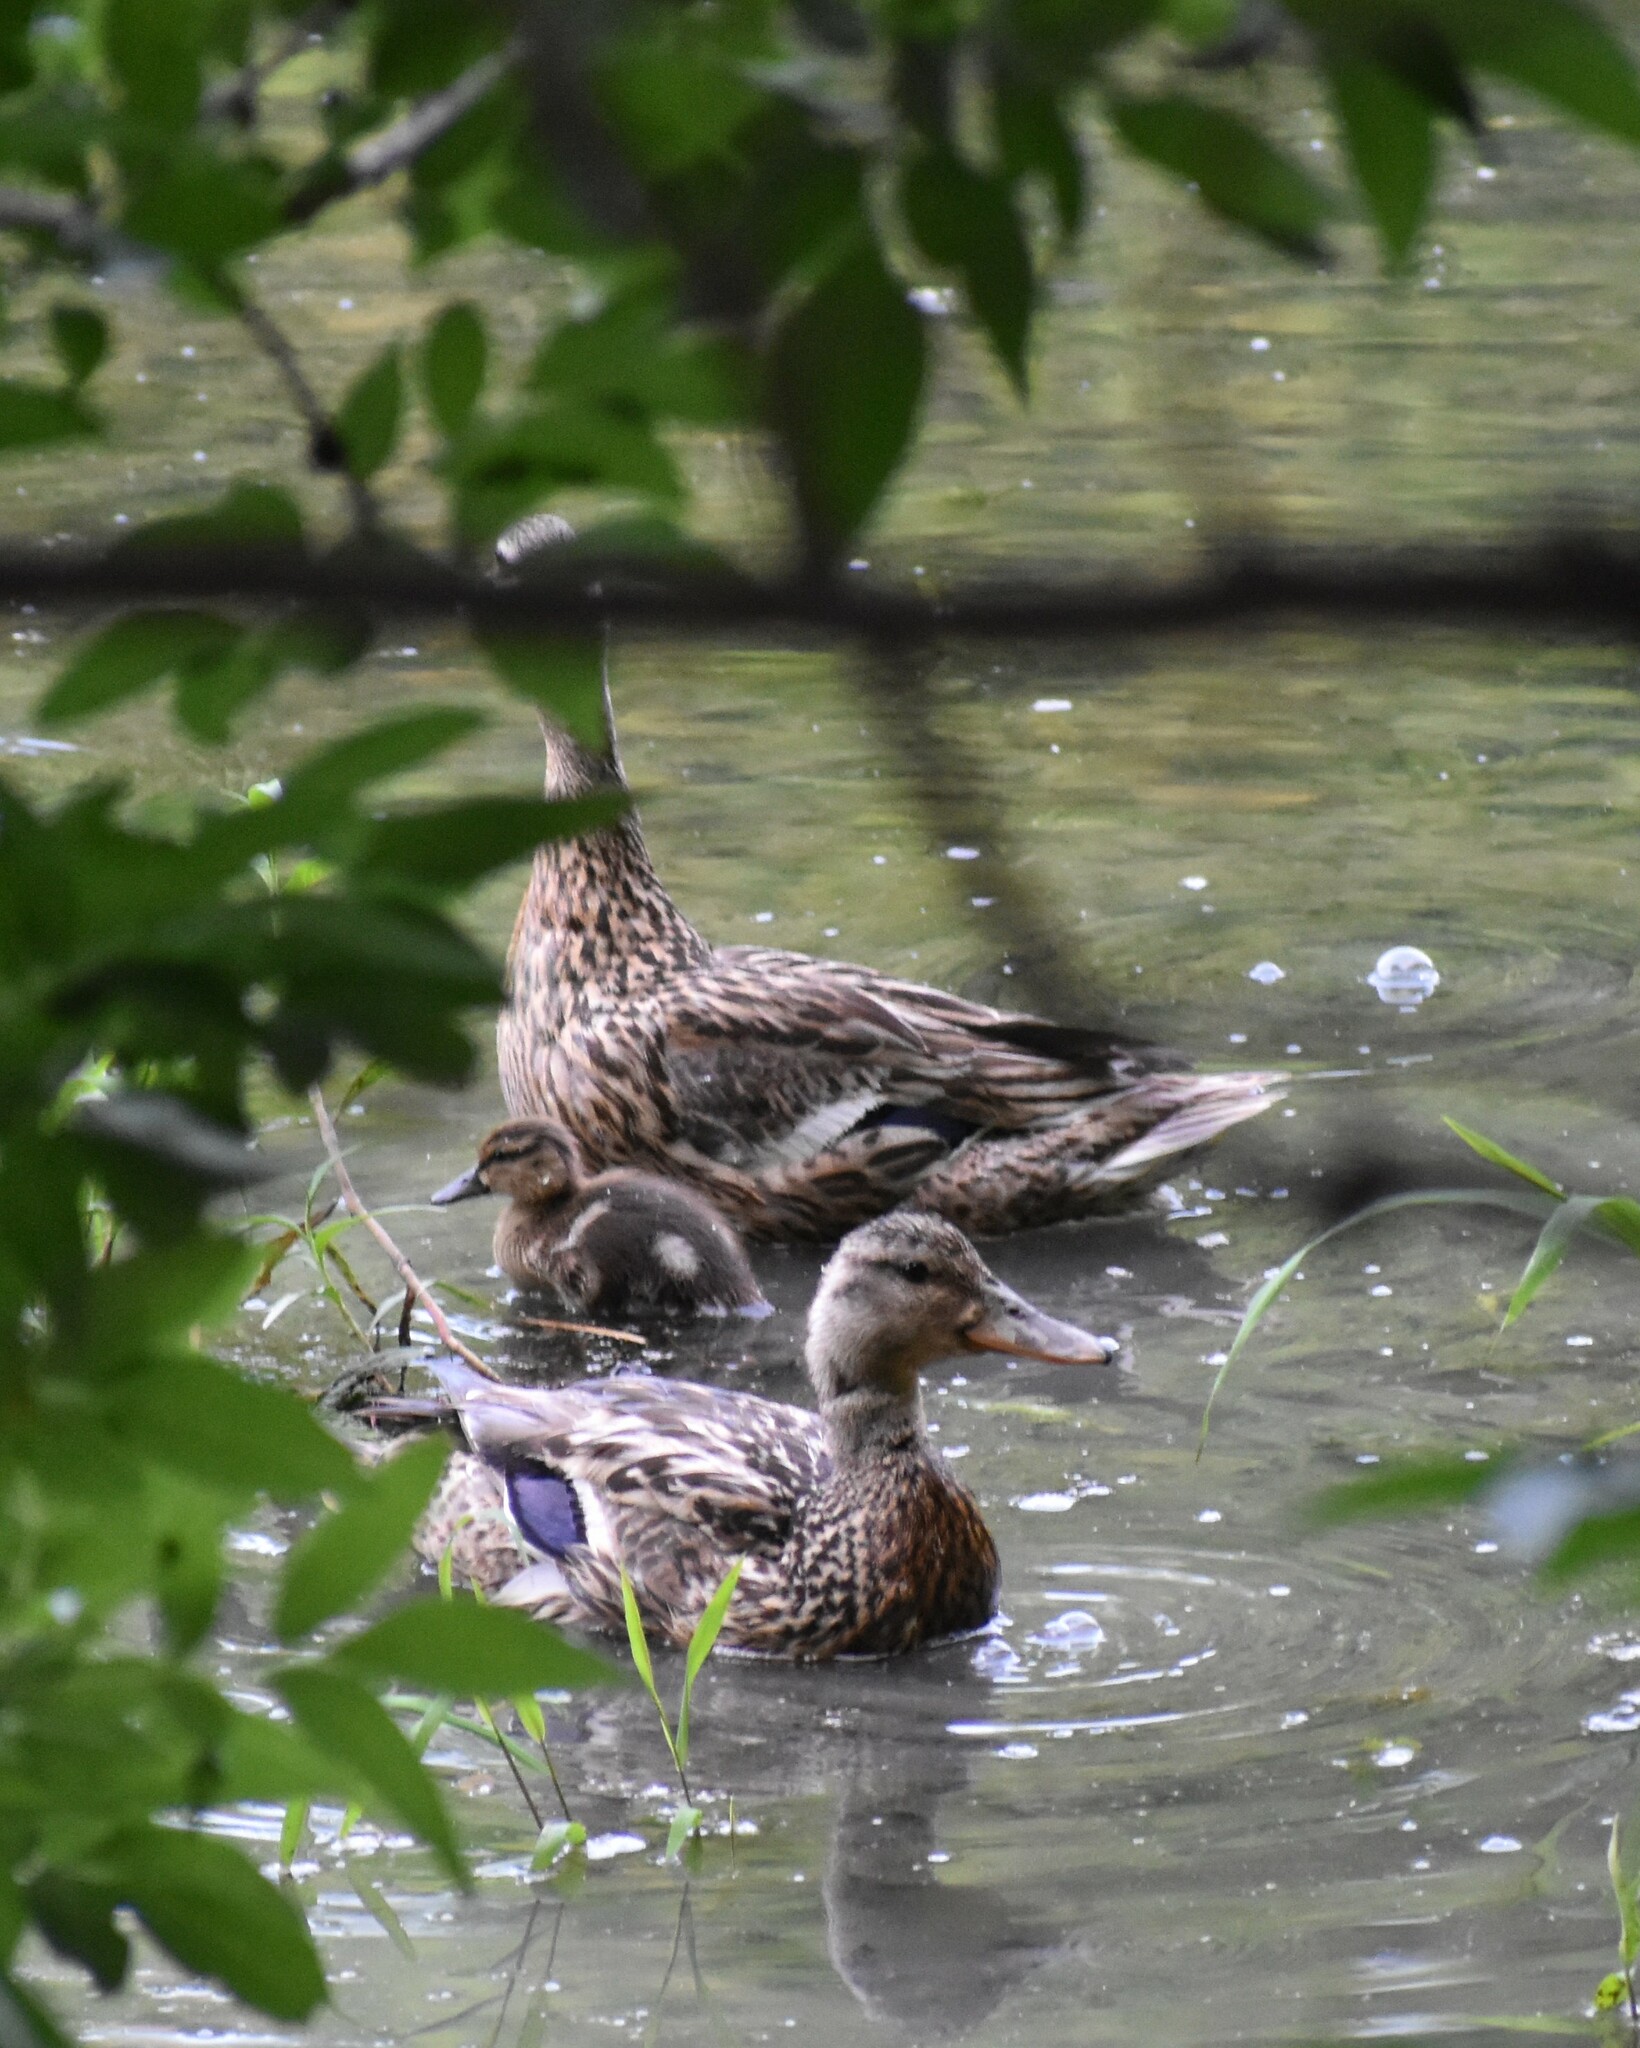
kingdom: Animalia
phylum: Chordata
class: Aves
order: Anseriformes
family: Anatidae
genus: Anas
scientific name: Anas platyrhynchos
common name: Mallard
